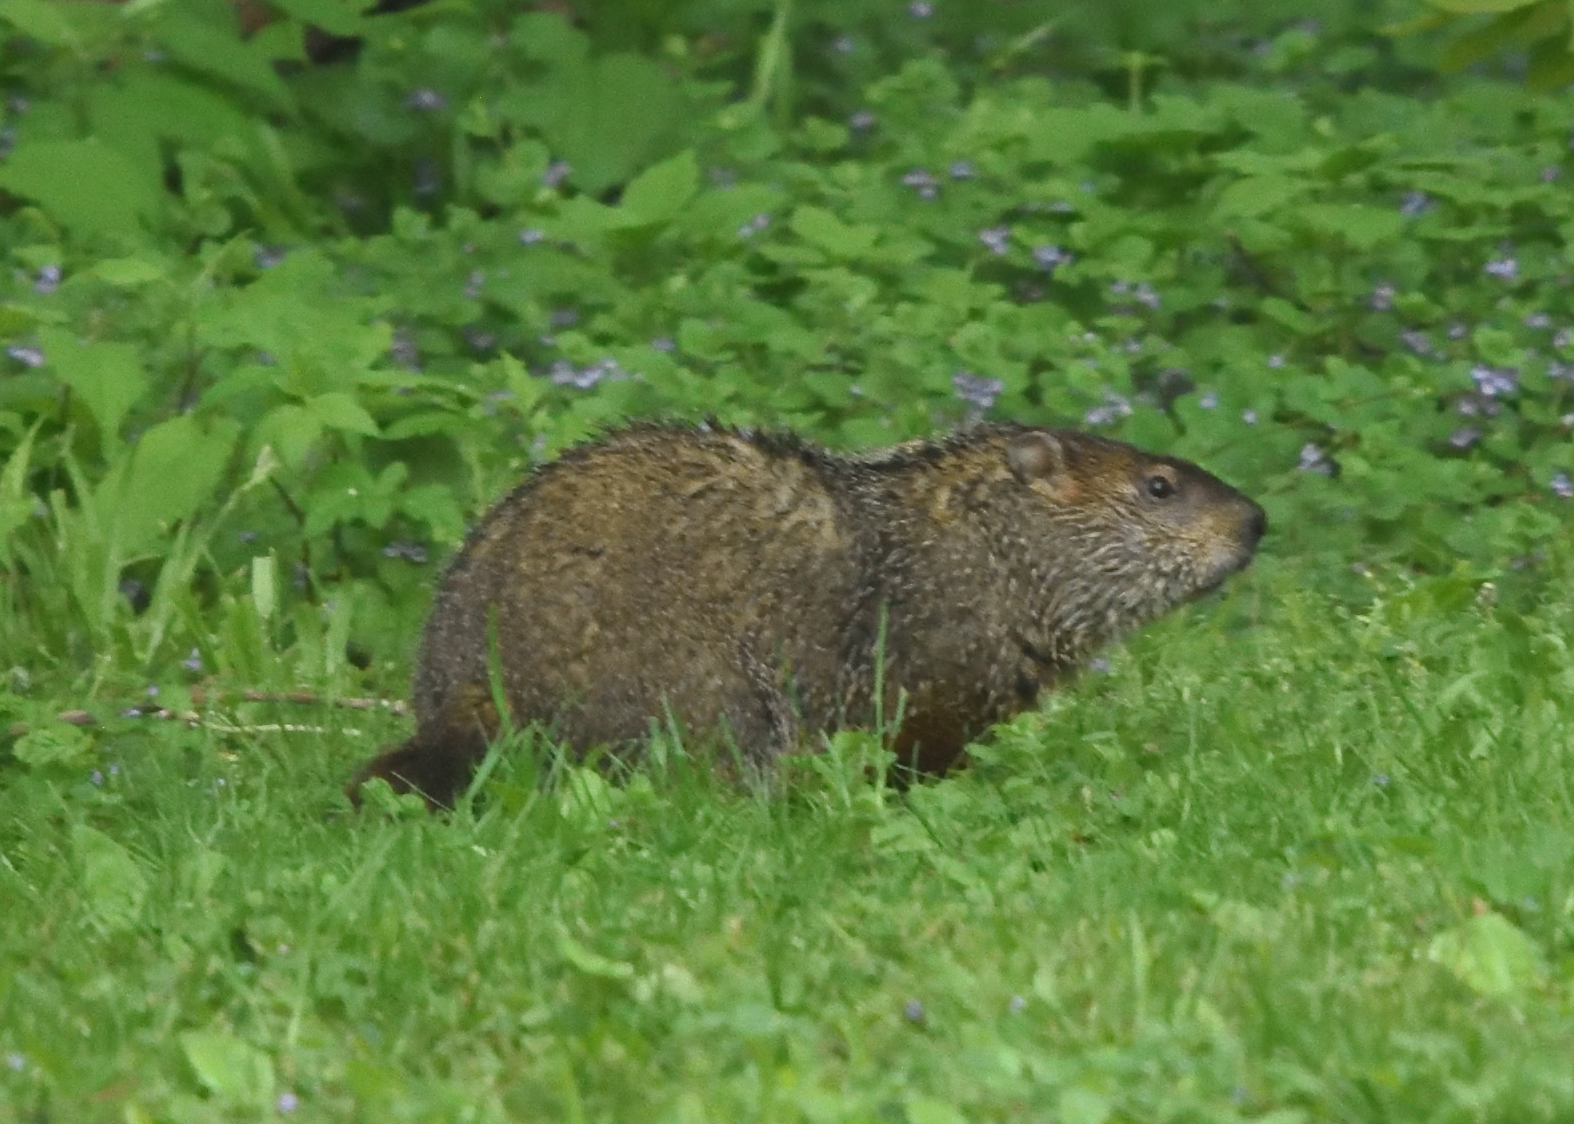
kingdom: Animalia
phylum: Chordata
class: Mammalia
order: Rodentia
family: Sciuridae
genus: Marmota
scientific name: Marmota monax
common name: Groundhog
